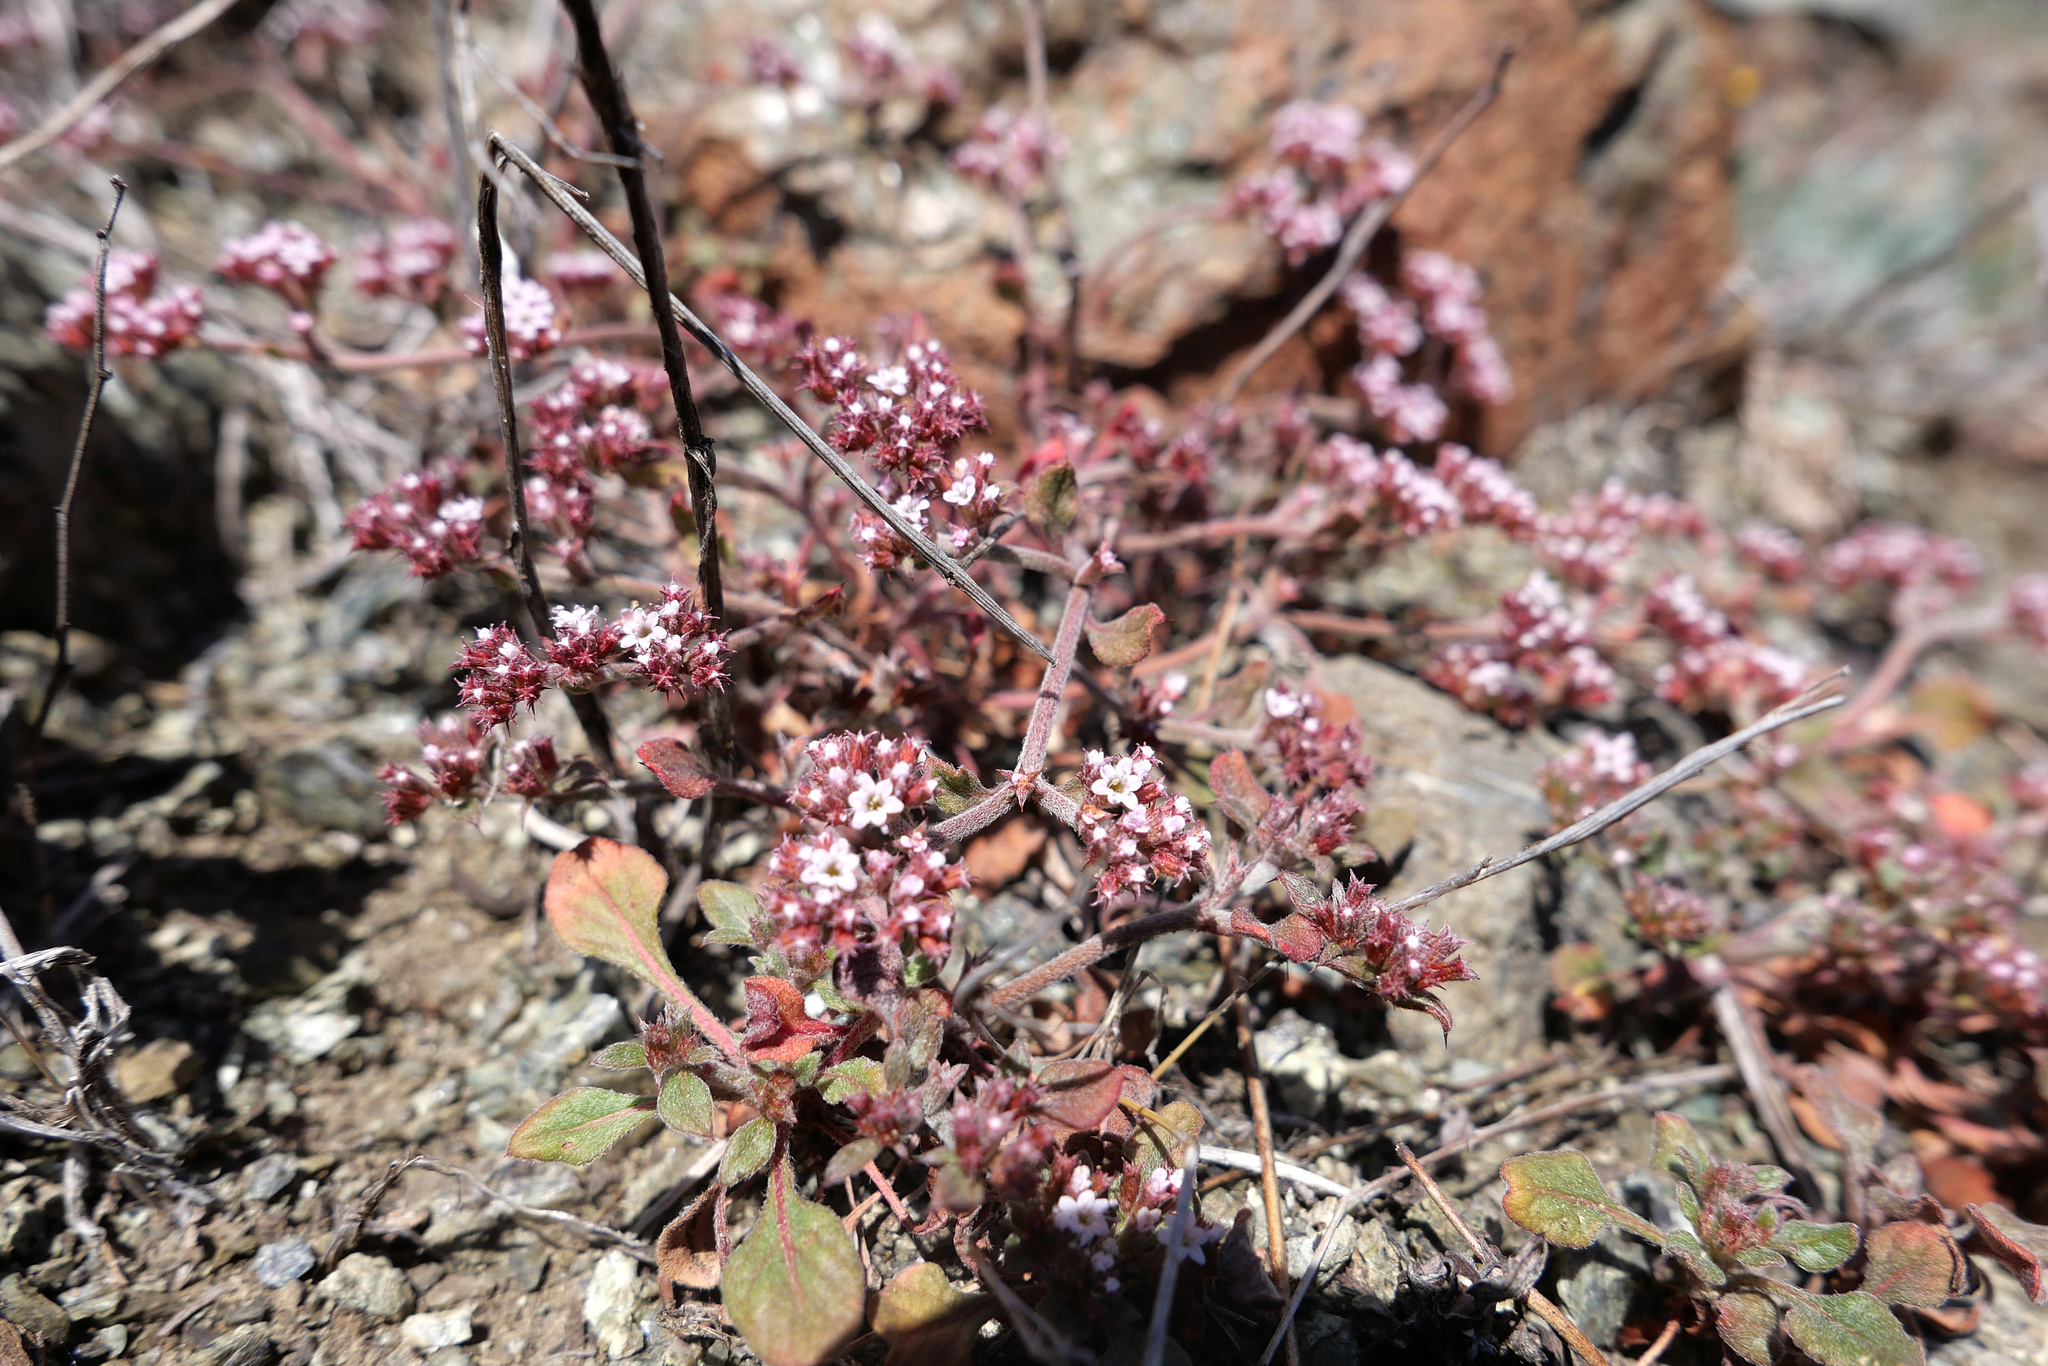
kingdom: Plantae
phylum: Tracheophyta
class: Magnoliopsida
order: Caryophyllales
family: Polygonaceae
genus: Chorizanthe
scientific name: Chorizanthe breweri
